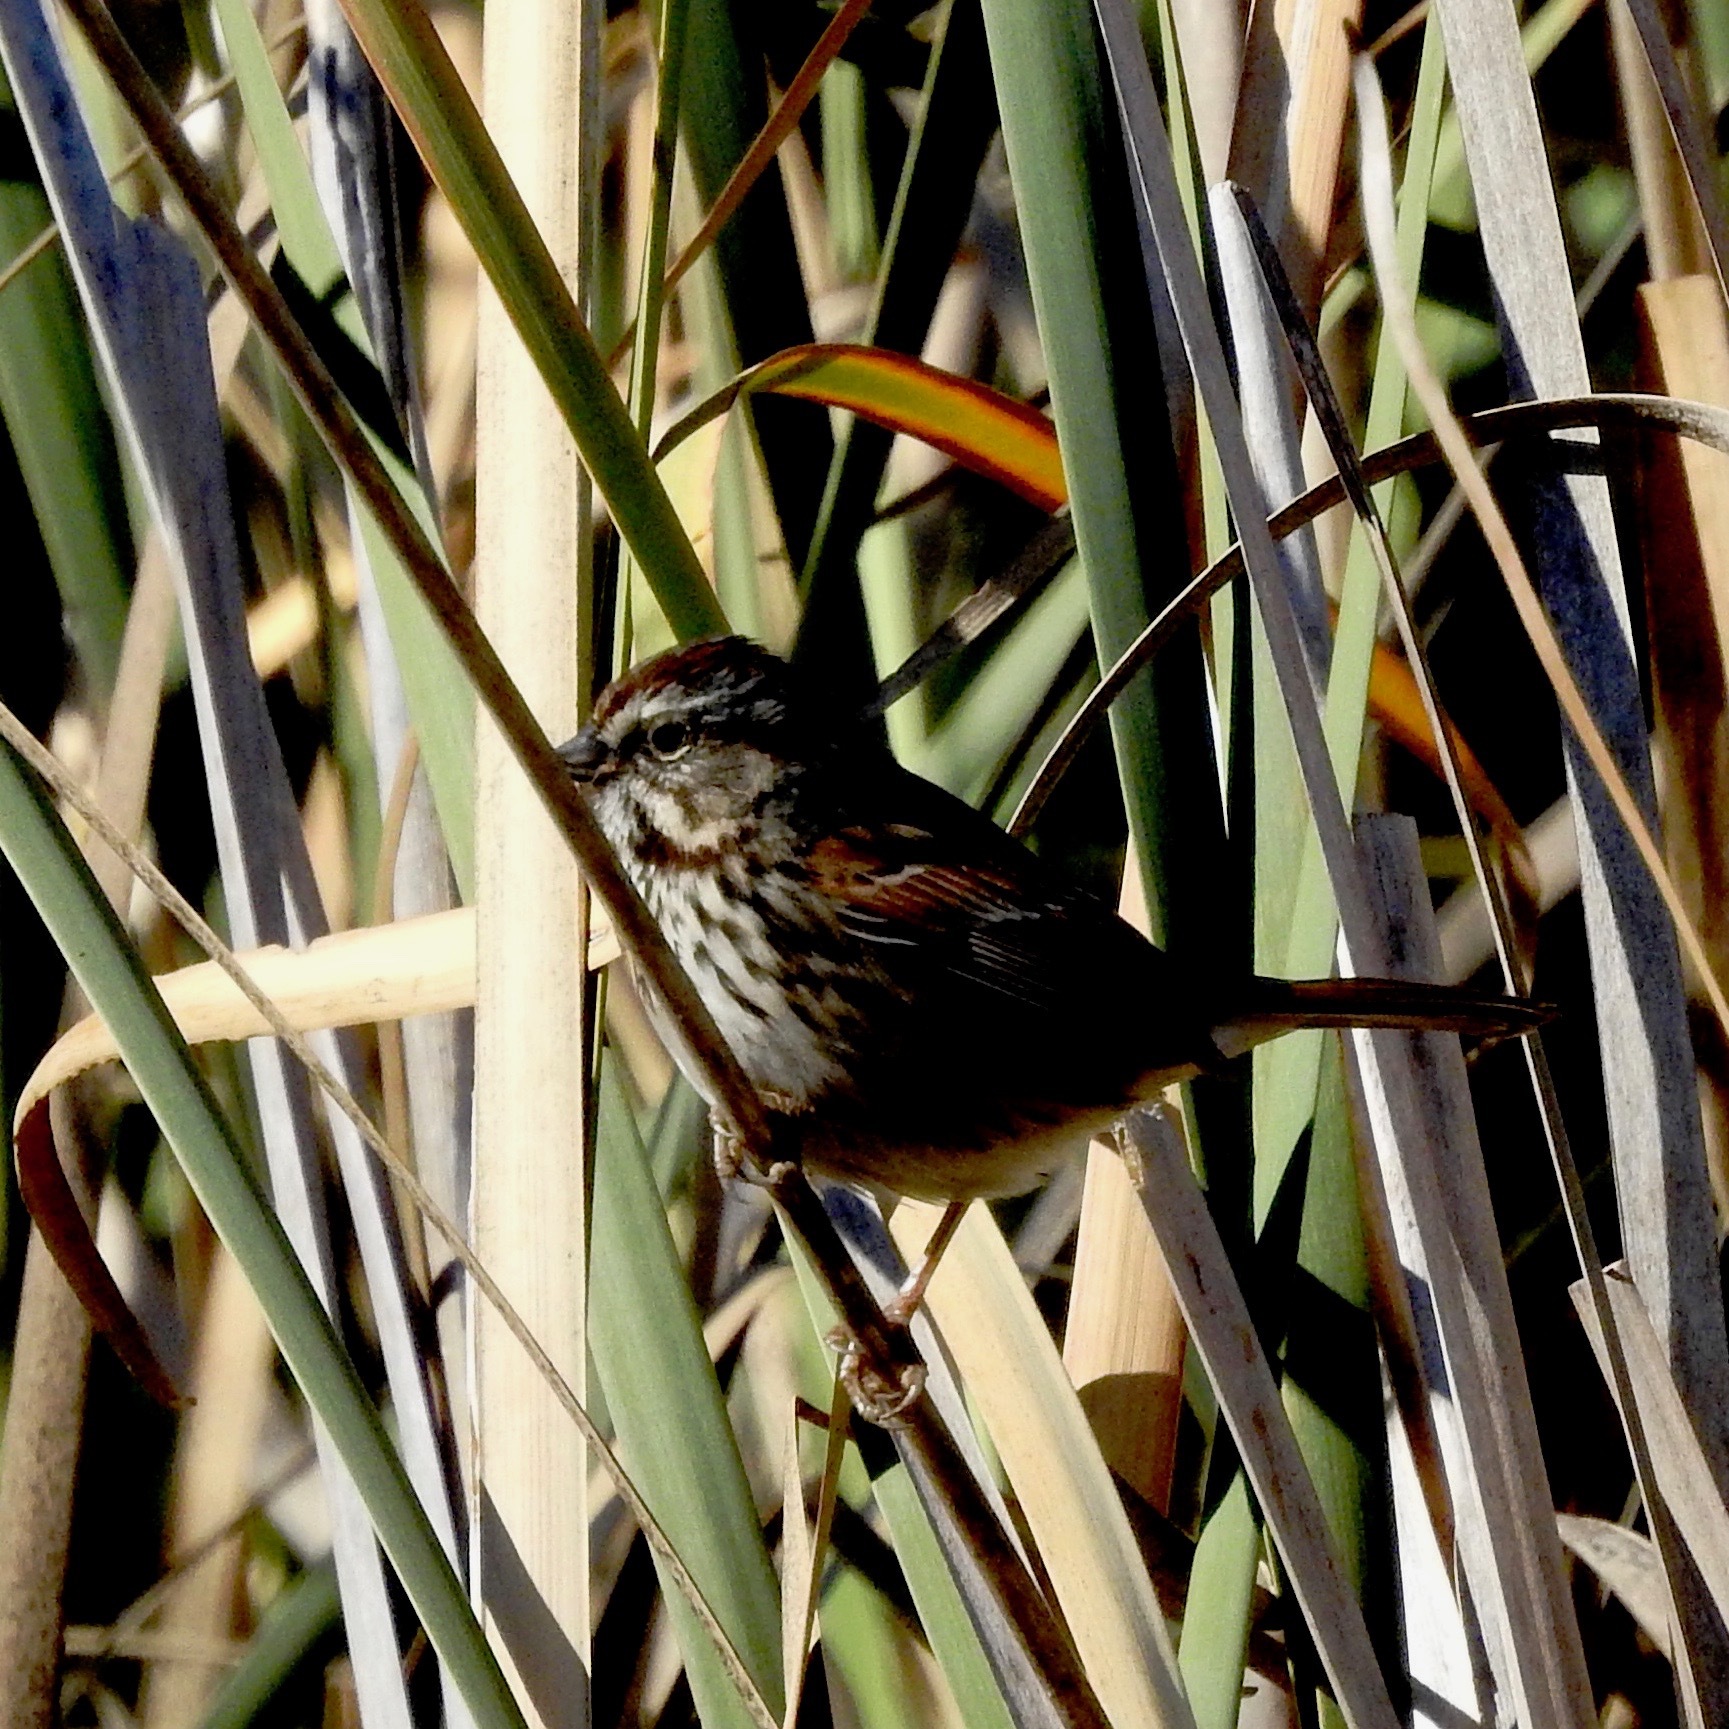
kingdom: Animalia
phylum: Chordata
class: Aves
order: Passeriformes
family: Passerellidae
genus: Melospiza
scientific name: Melospiza melodia
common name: Song sparrow
